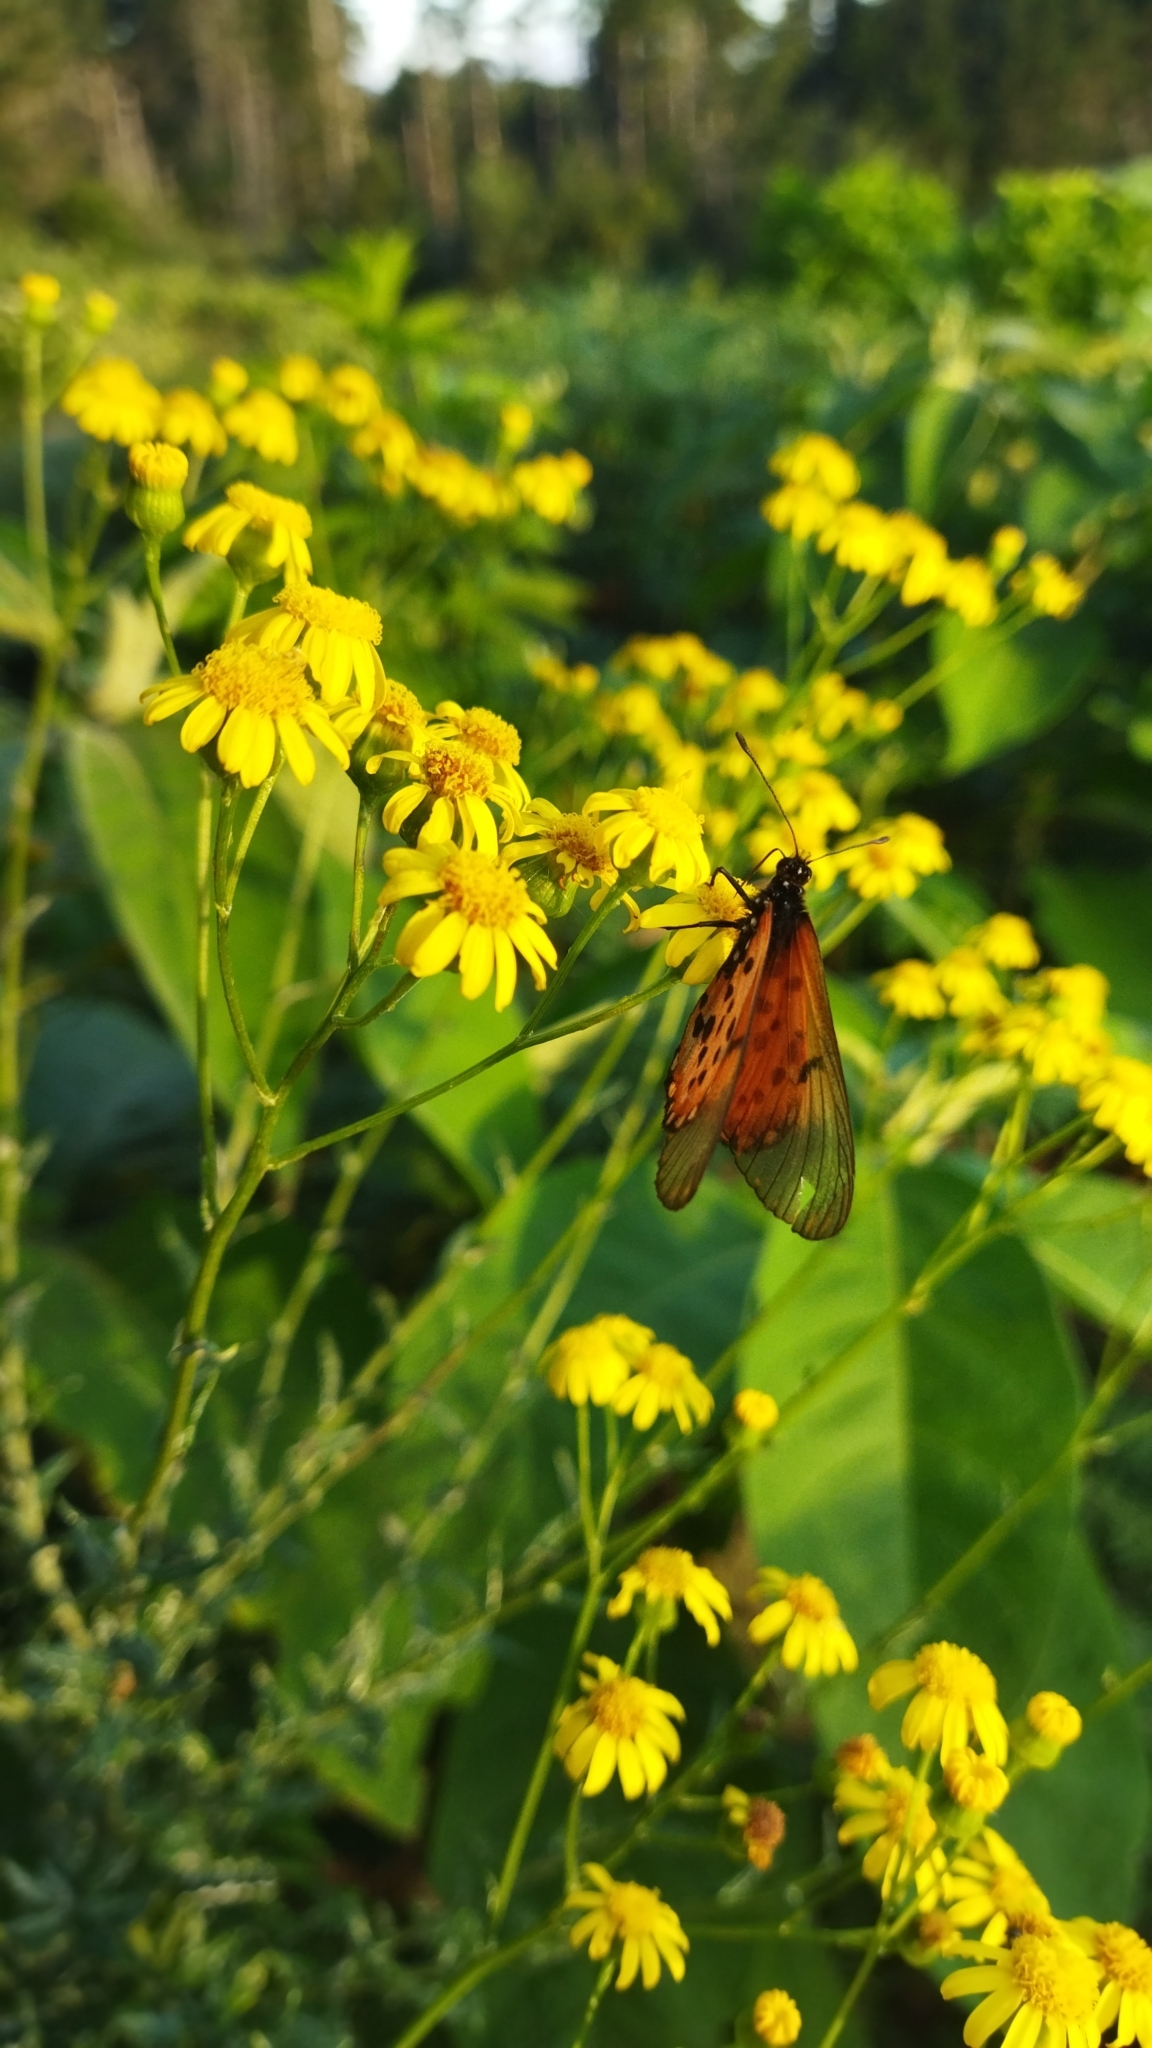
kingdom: Animalia
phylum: Arthropoda
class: Insecta
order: Lepidoptera
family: Nymphalidae
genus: Acraea
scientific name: Acraea horta
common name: Garden acraea
